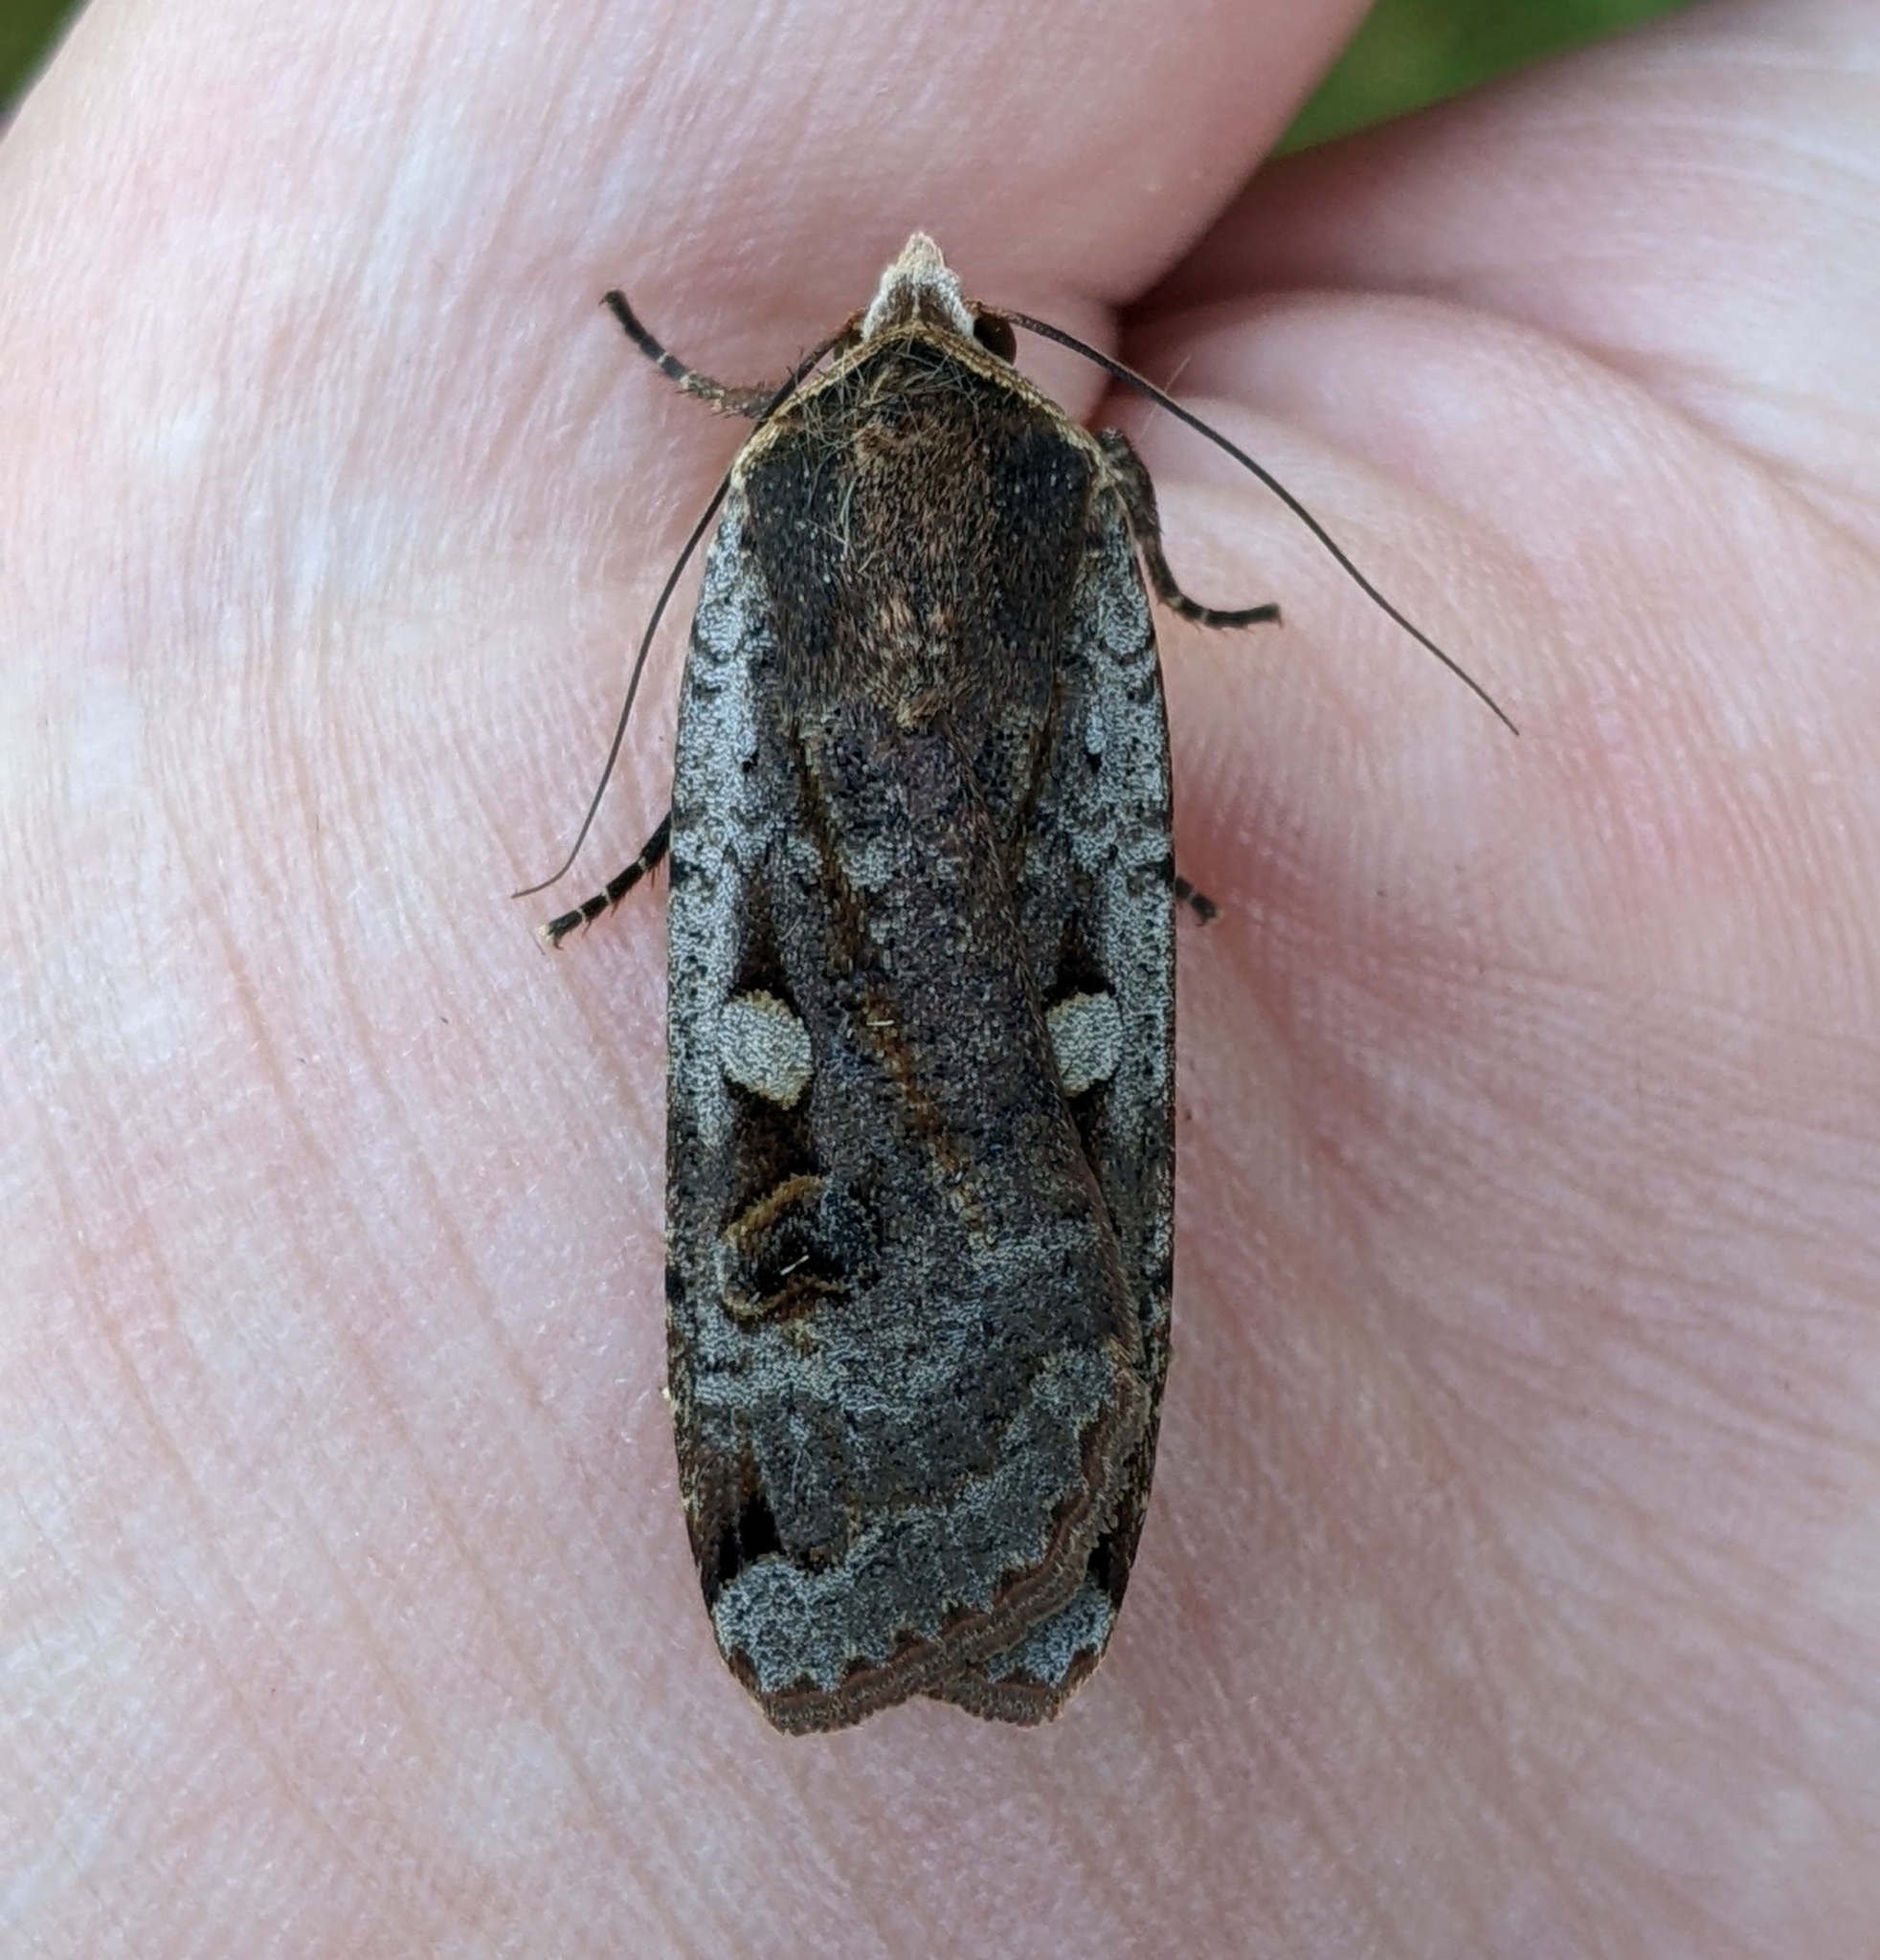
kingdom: Animalia
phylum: Arthropoda
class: Insecta
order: Lepidoptera
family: Noctuidae
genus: Noctua
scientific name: Noctua pronuba
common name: Large yellow underwing
